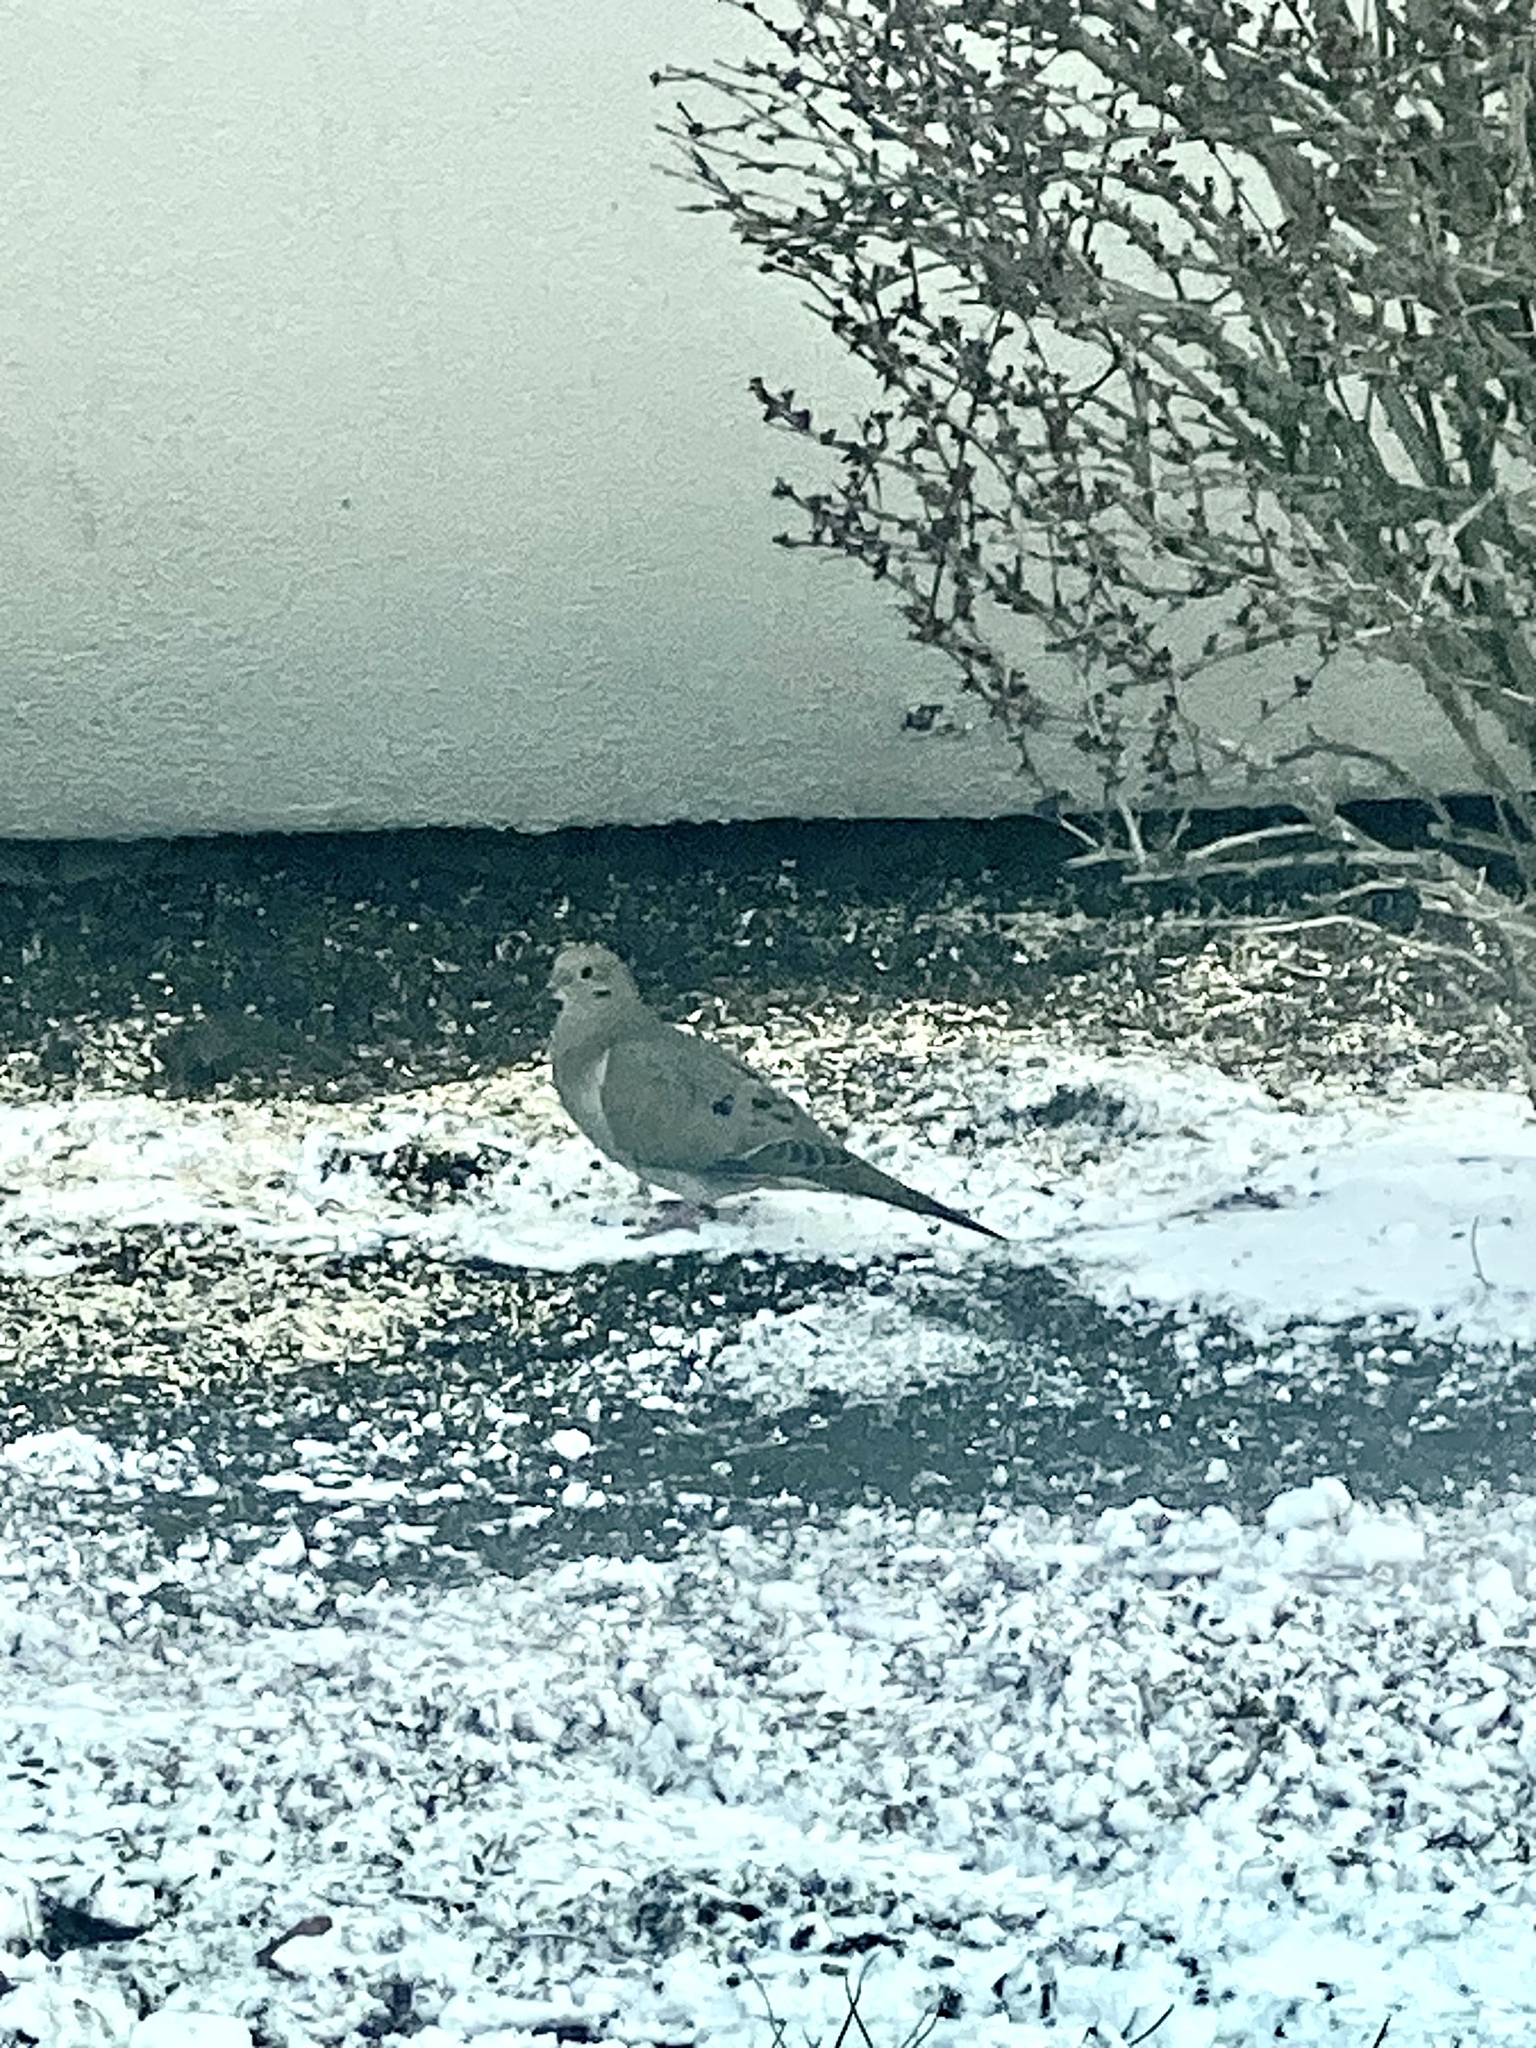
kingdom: Animalia
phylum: Chordata
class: Aves
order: Columbiformes
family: Columbidae
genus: Zenaida
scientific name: Zenaida macroura
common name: Mourning dove
